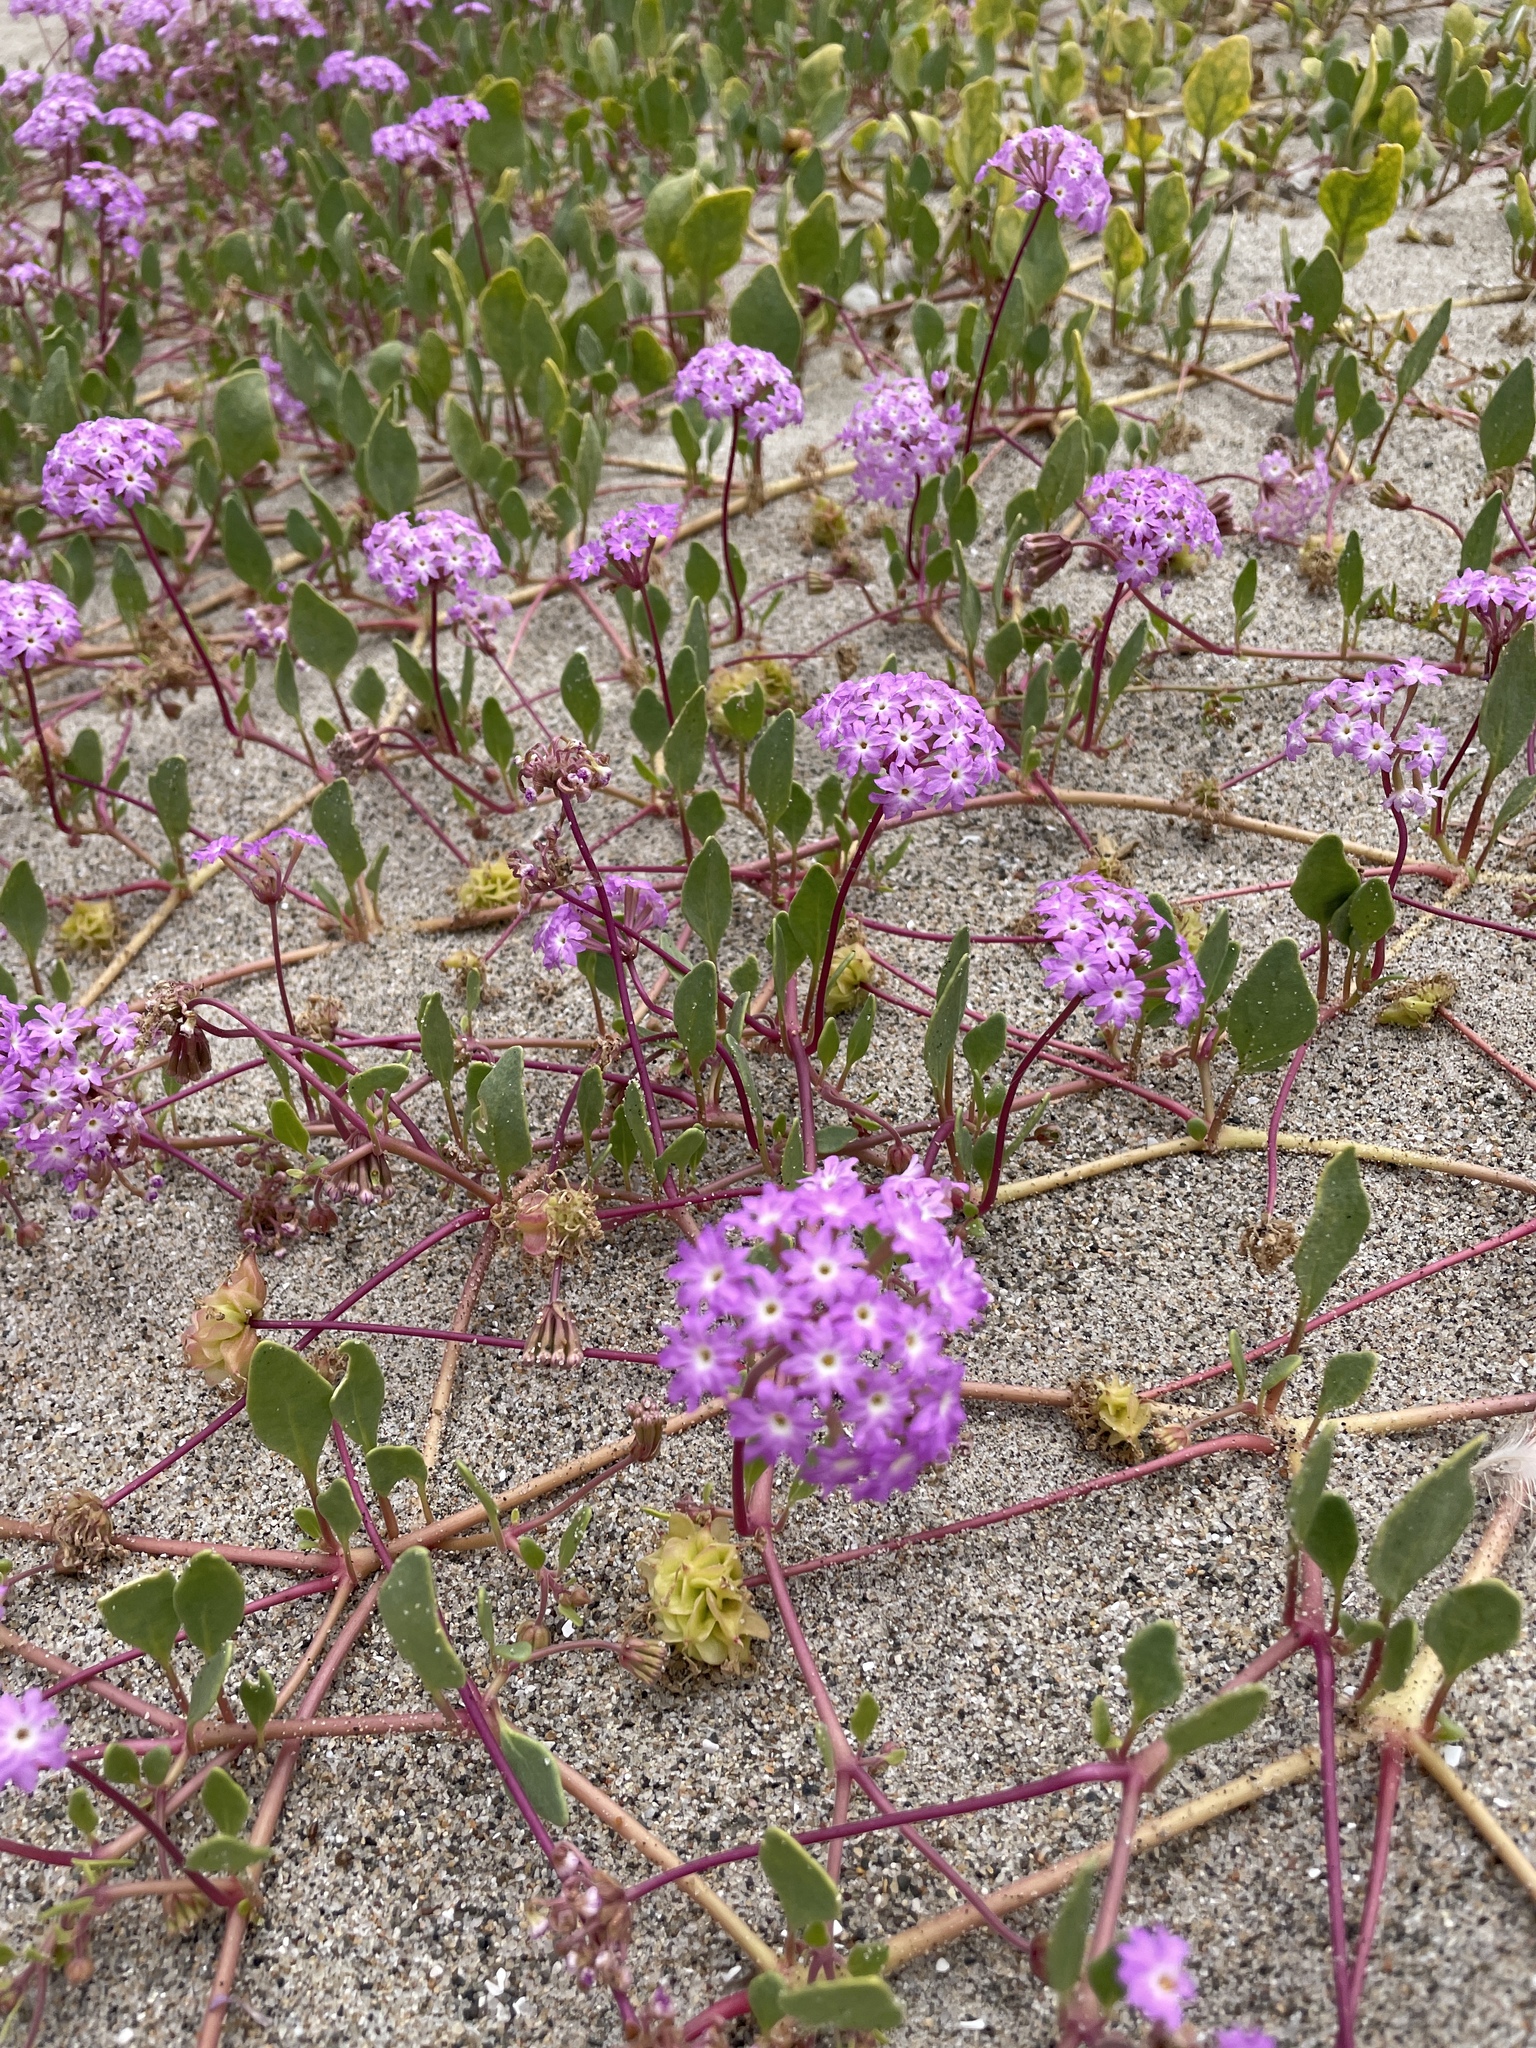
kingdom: Plantae
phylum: Tracheophyta
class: Magnoliopsida
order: Caryophyllales
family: Nyctaginaceae
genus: Abronia
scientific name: Abronia umbellata
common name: Sand-verbena
